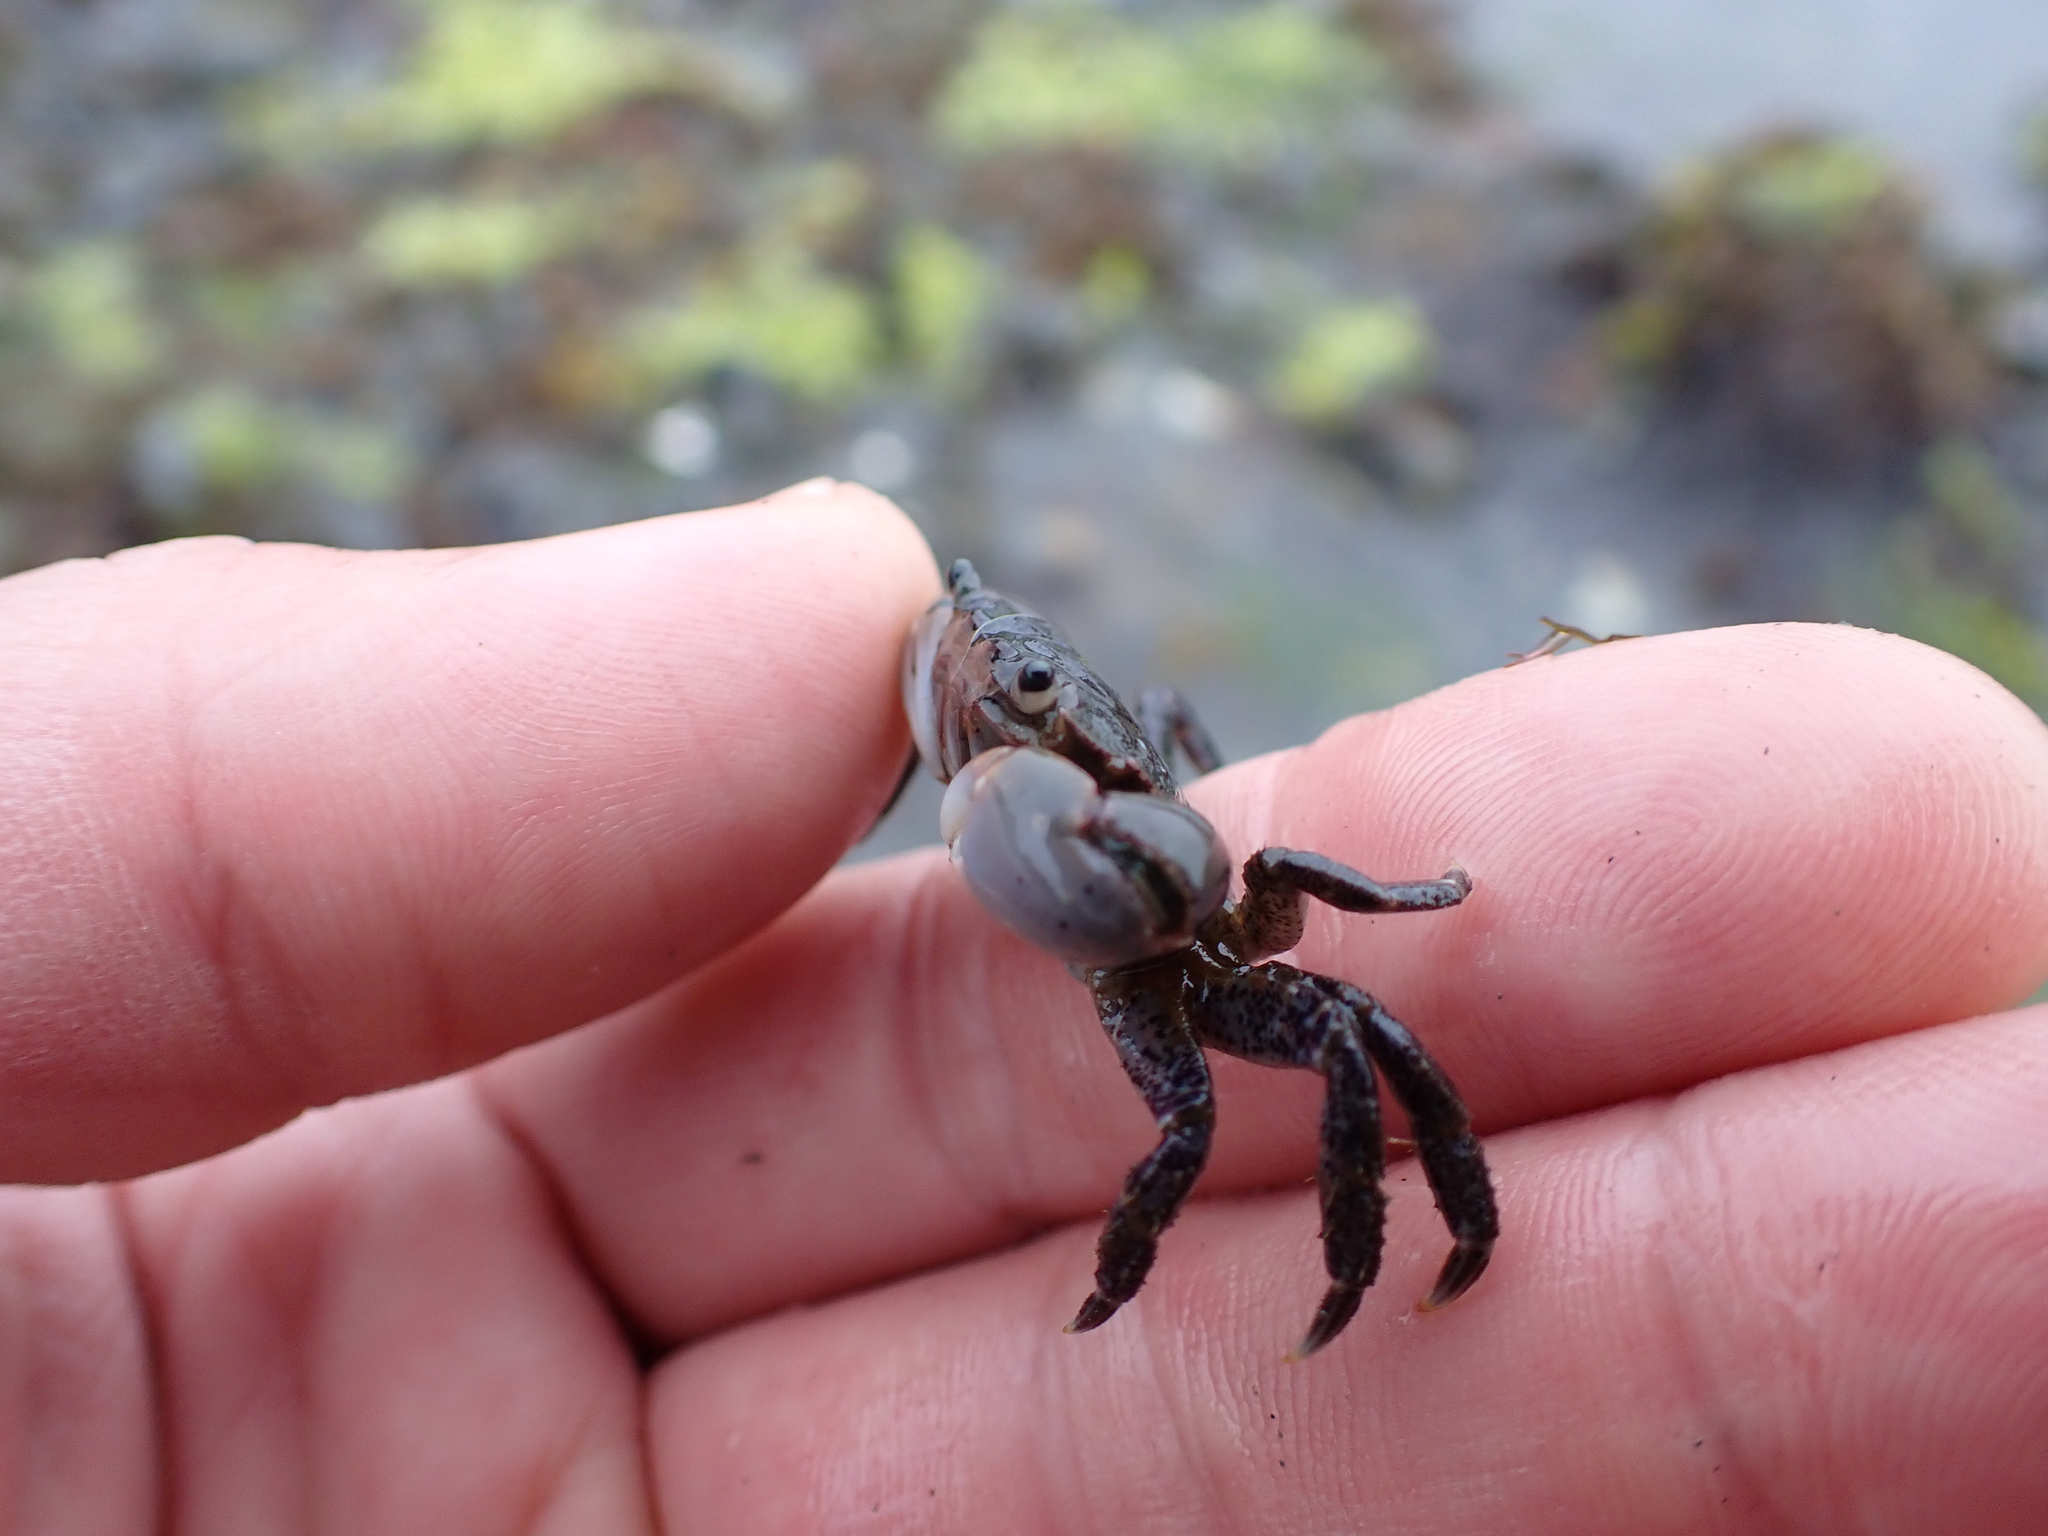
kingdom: Animalia
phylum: Arthropoda
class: Malacostraca
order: Decapoda
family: Varunidae
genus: Hemigrapsus
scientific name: Hemigrapsus oregonensis
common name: Yellow shore crab
